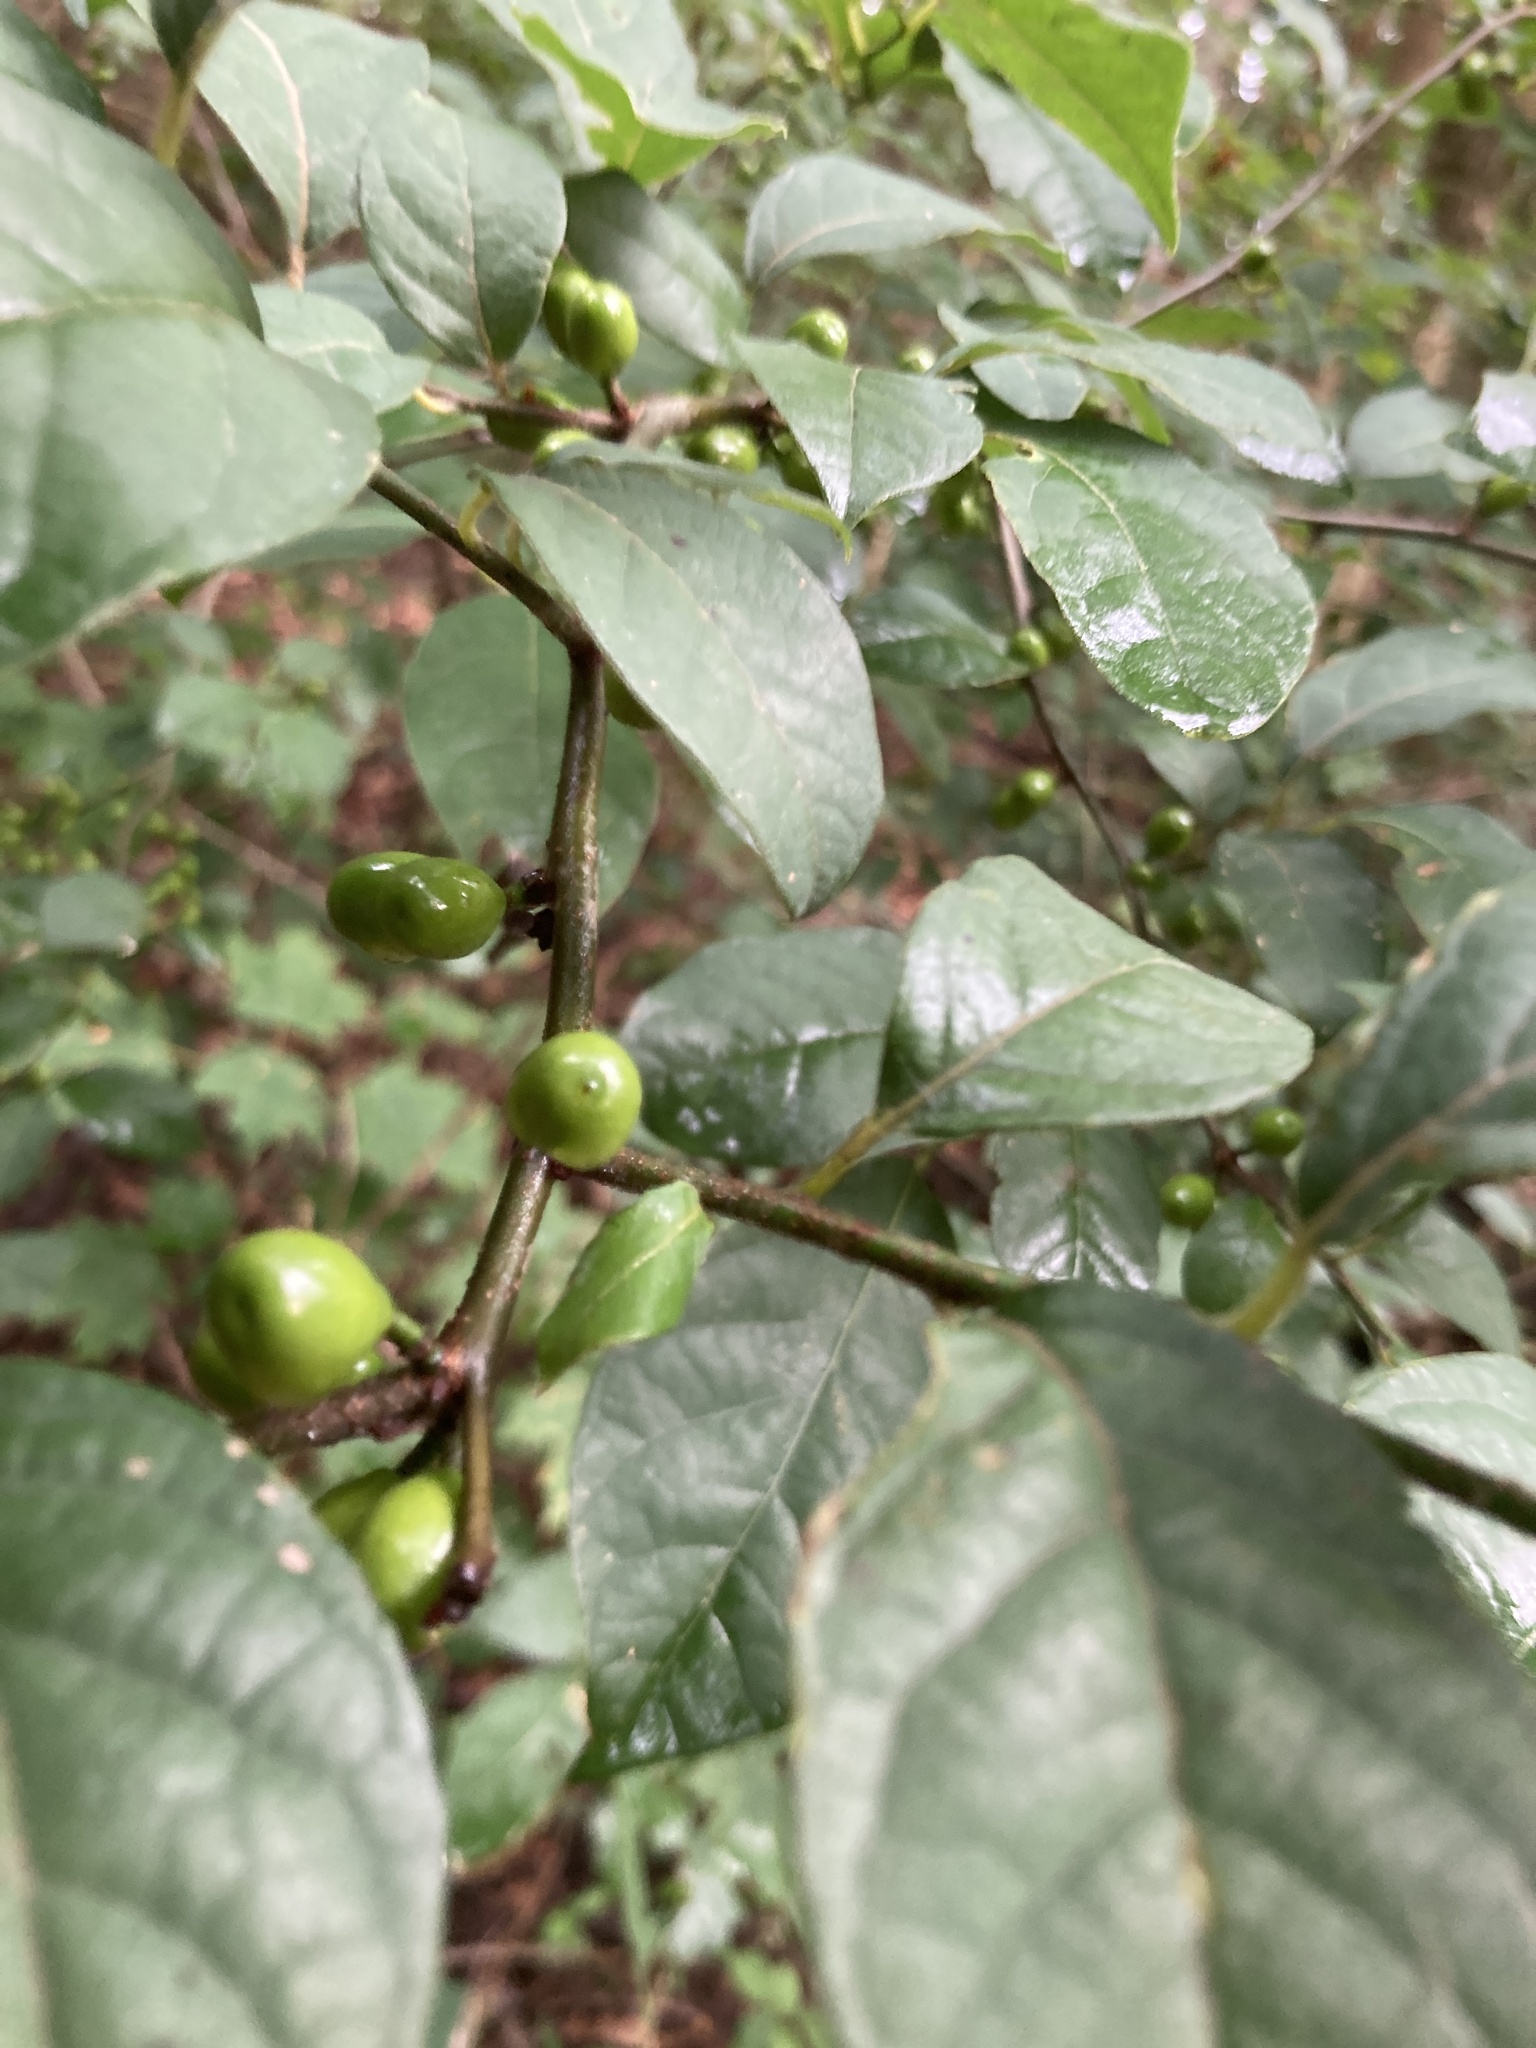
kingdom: Plantae
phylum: Tracheophyta
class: Magnoliopsida
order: Laurales
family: Lauraceae
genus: Lindera
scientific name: Lindera benzoin
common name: Spicebush
